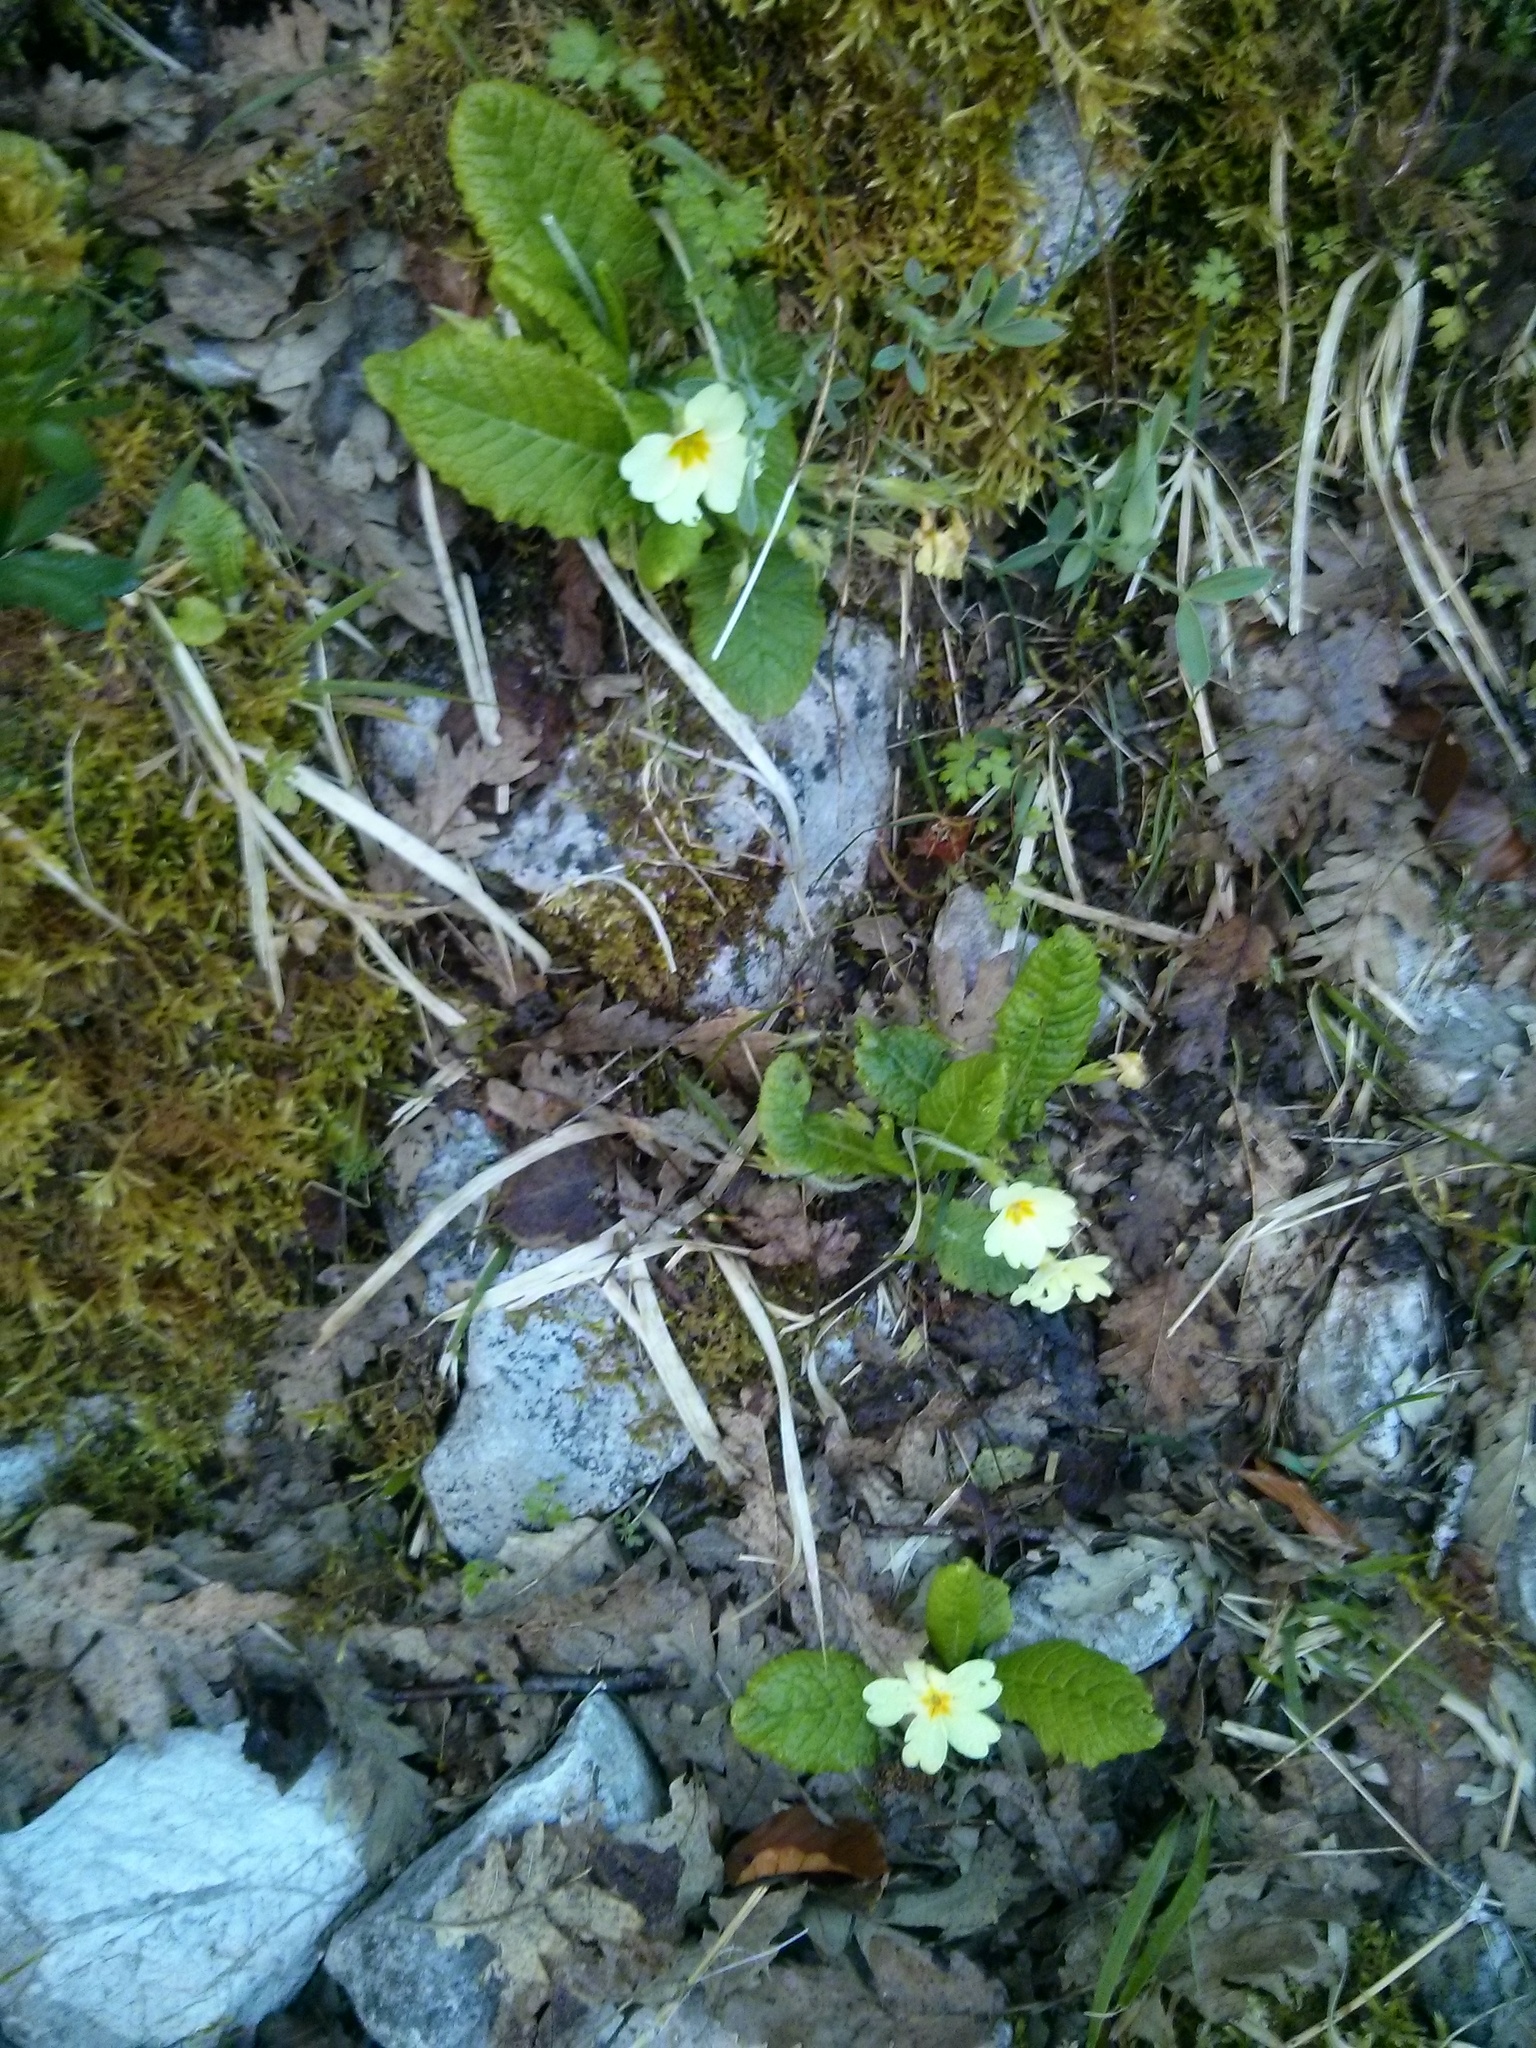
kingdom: Plantae
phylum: Tracheophyta
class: Magnoliopsida
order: Ericales
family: Primulaceae
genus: Primula
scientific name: Primula vulgaris
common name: Primrose
